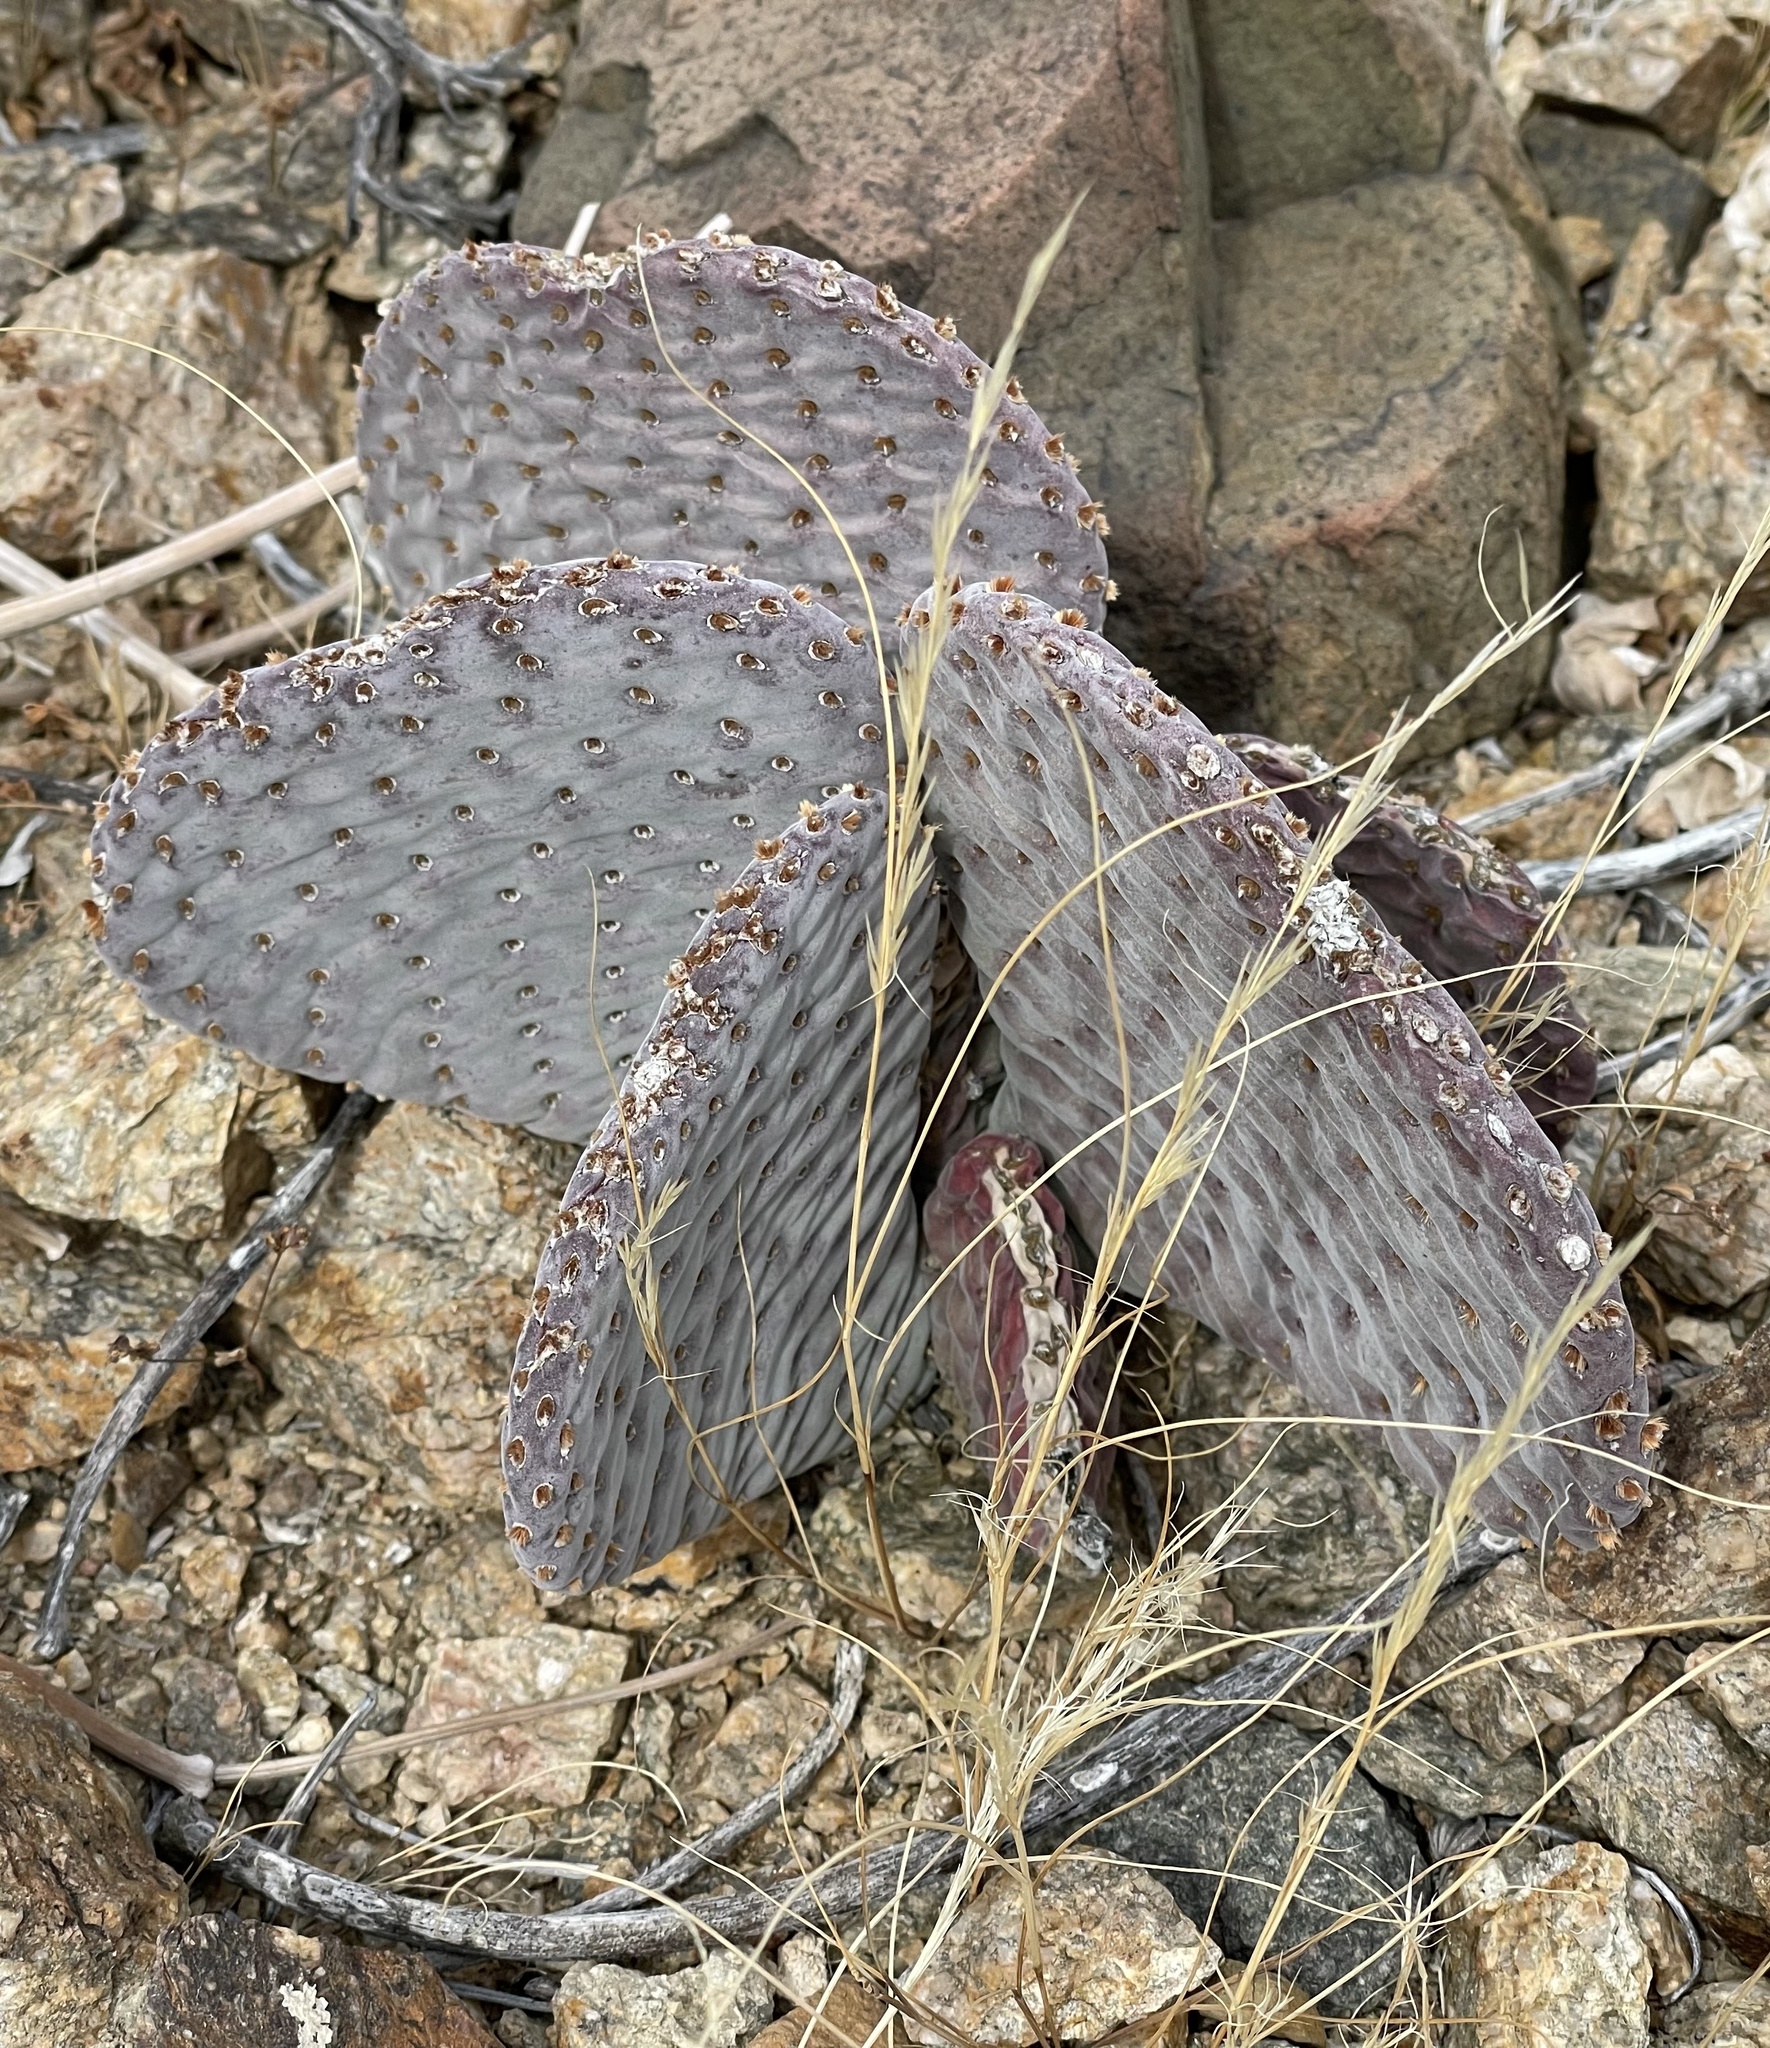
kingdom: Plantae
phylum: Tracheophyta
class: Magnoliopsida
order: Caryophyllales
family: Cactaceae
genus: Opuntia
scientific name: Opuntia basilaris
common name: Beavertail prickly-pear
